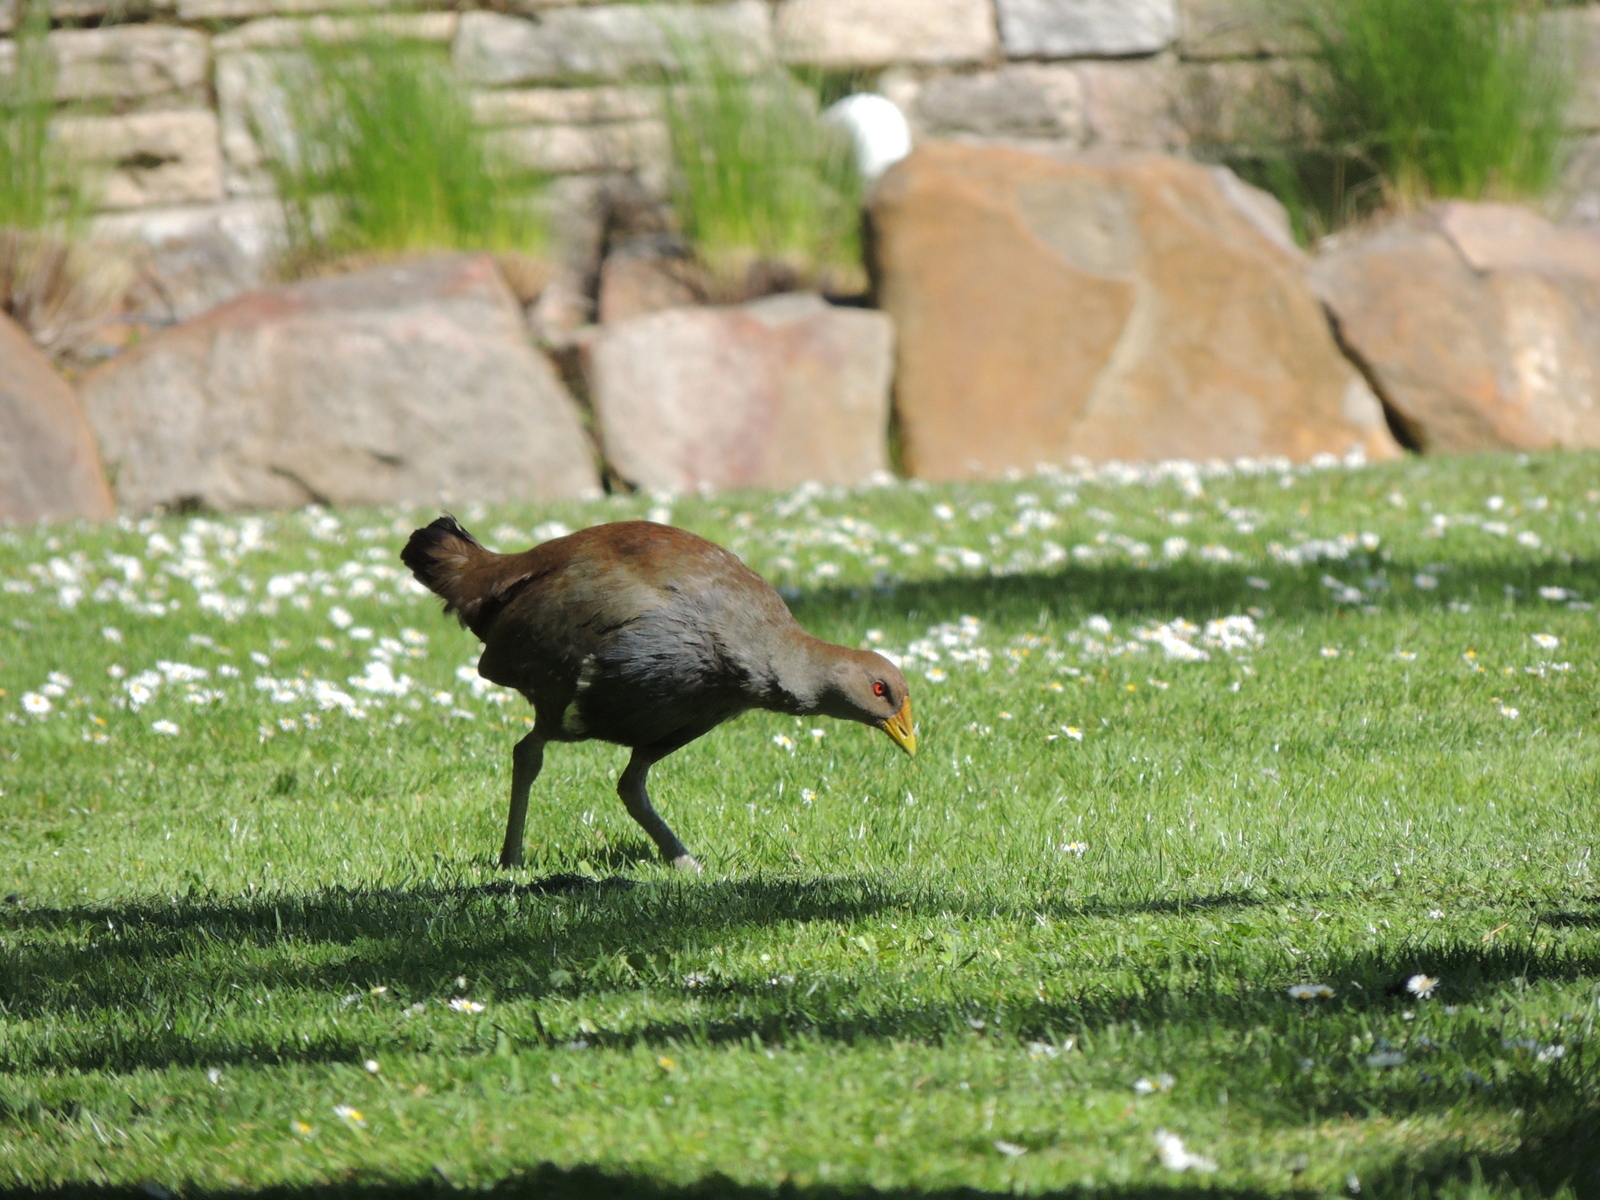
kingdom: Animalia
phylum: Chordata
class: Aves
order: Gruiformes
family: Rallidae
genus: Gallinula
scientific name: Gallinula mortierii
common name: Tasmanian nativehen
